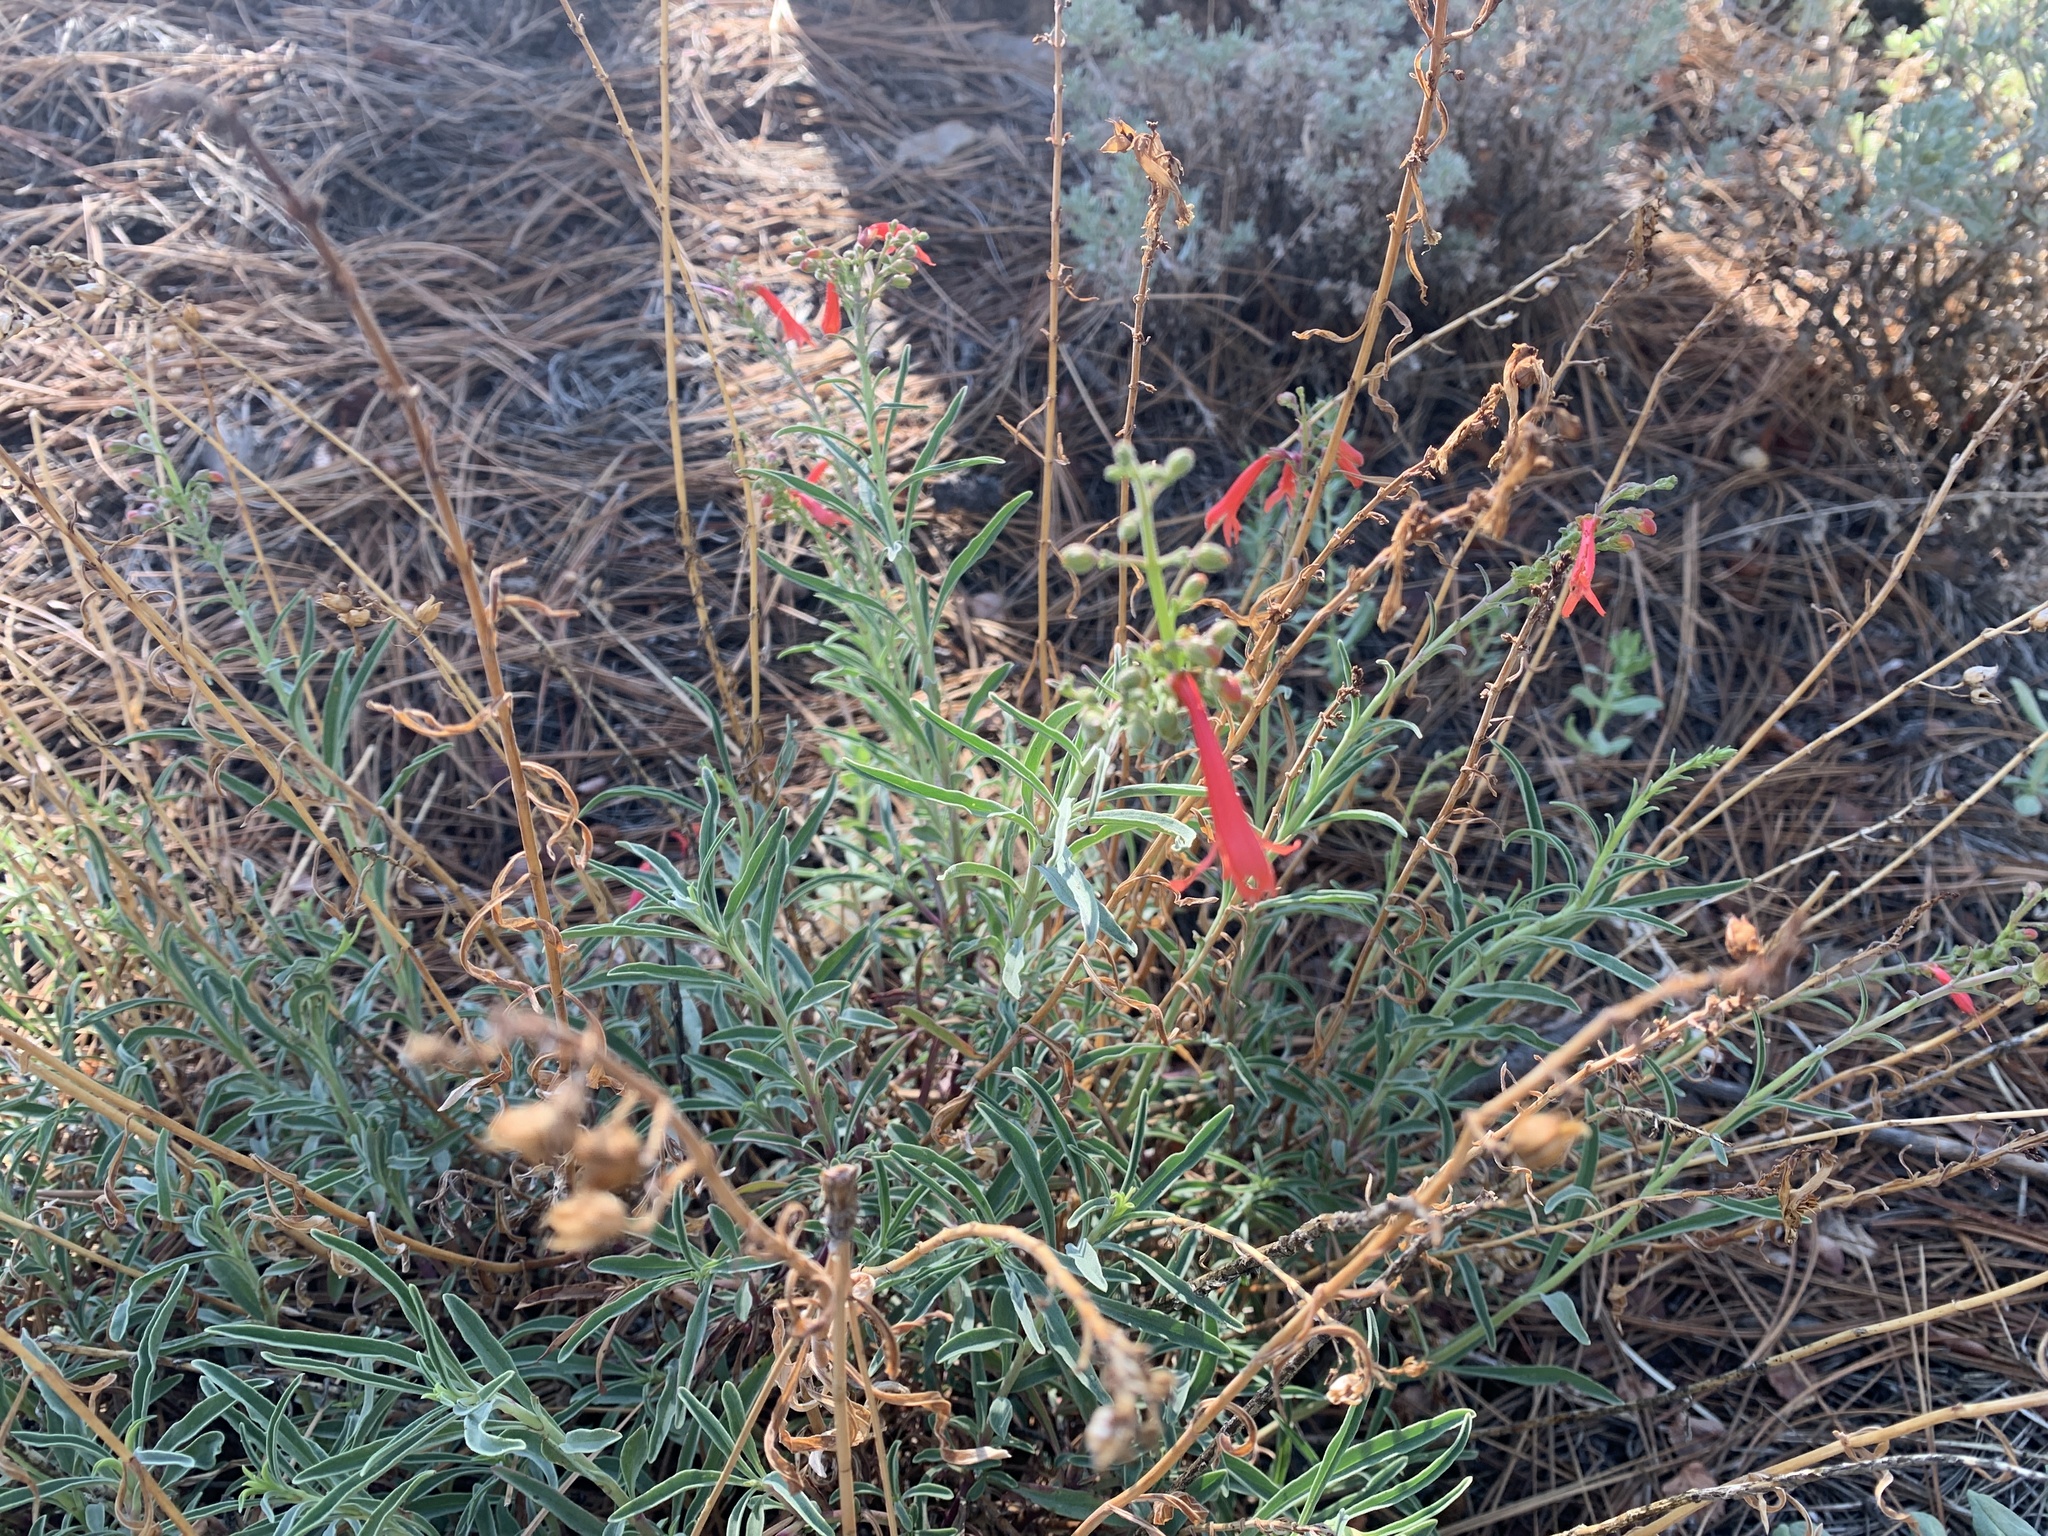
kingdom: Plantae
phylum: Tracheophyta
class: Magnoliopsida
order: Lamiales
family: Plantaginaceae
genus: Penstemon
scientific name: Penstemon rostriflorus
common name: Bridges's penstemon
